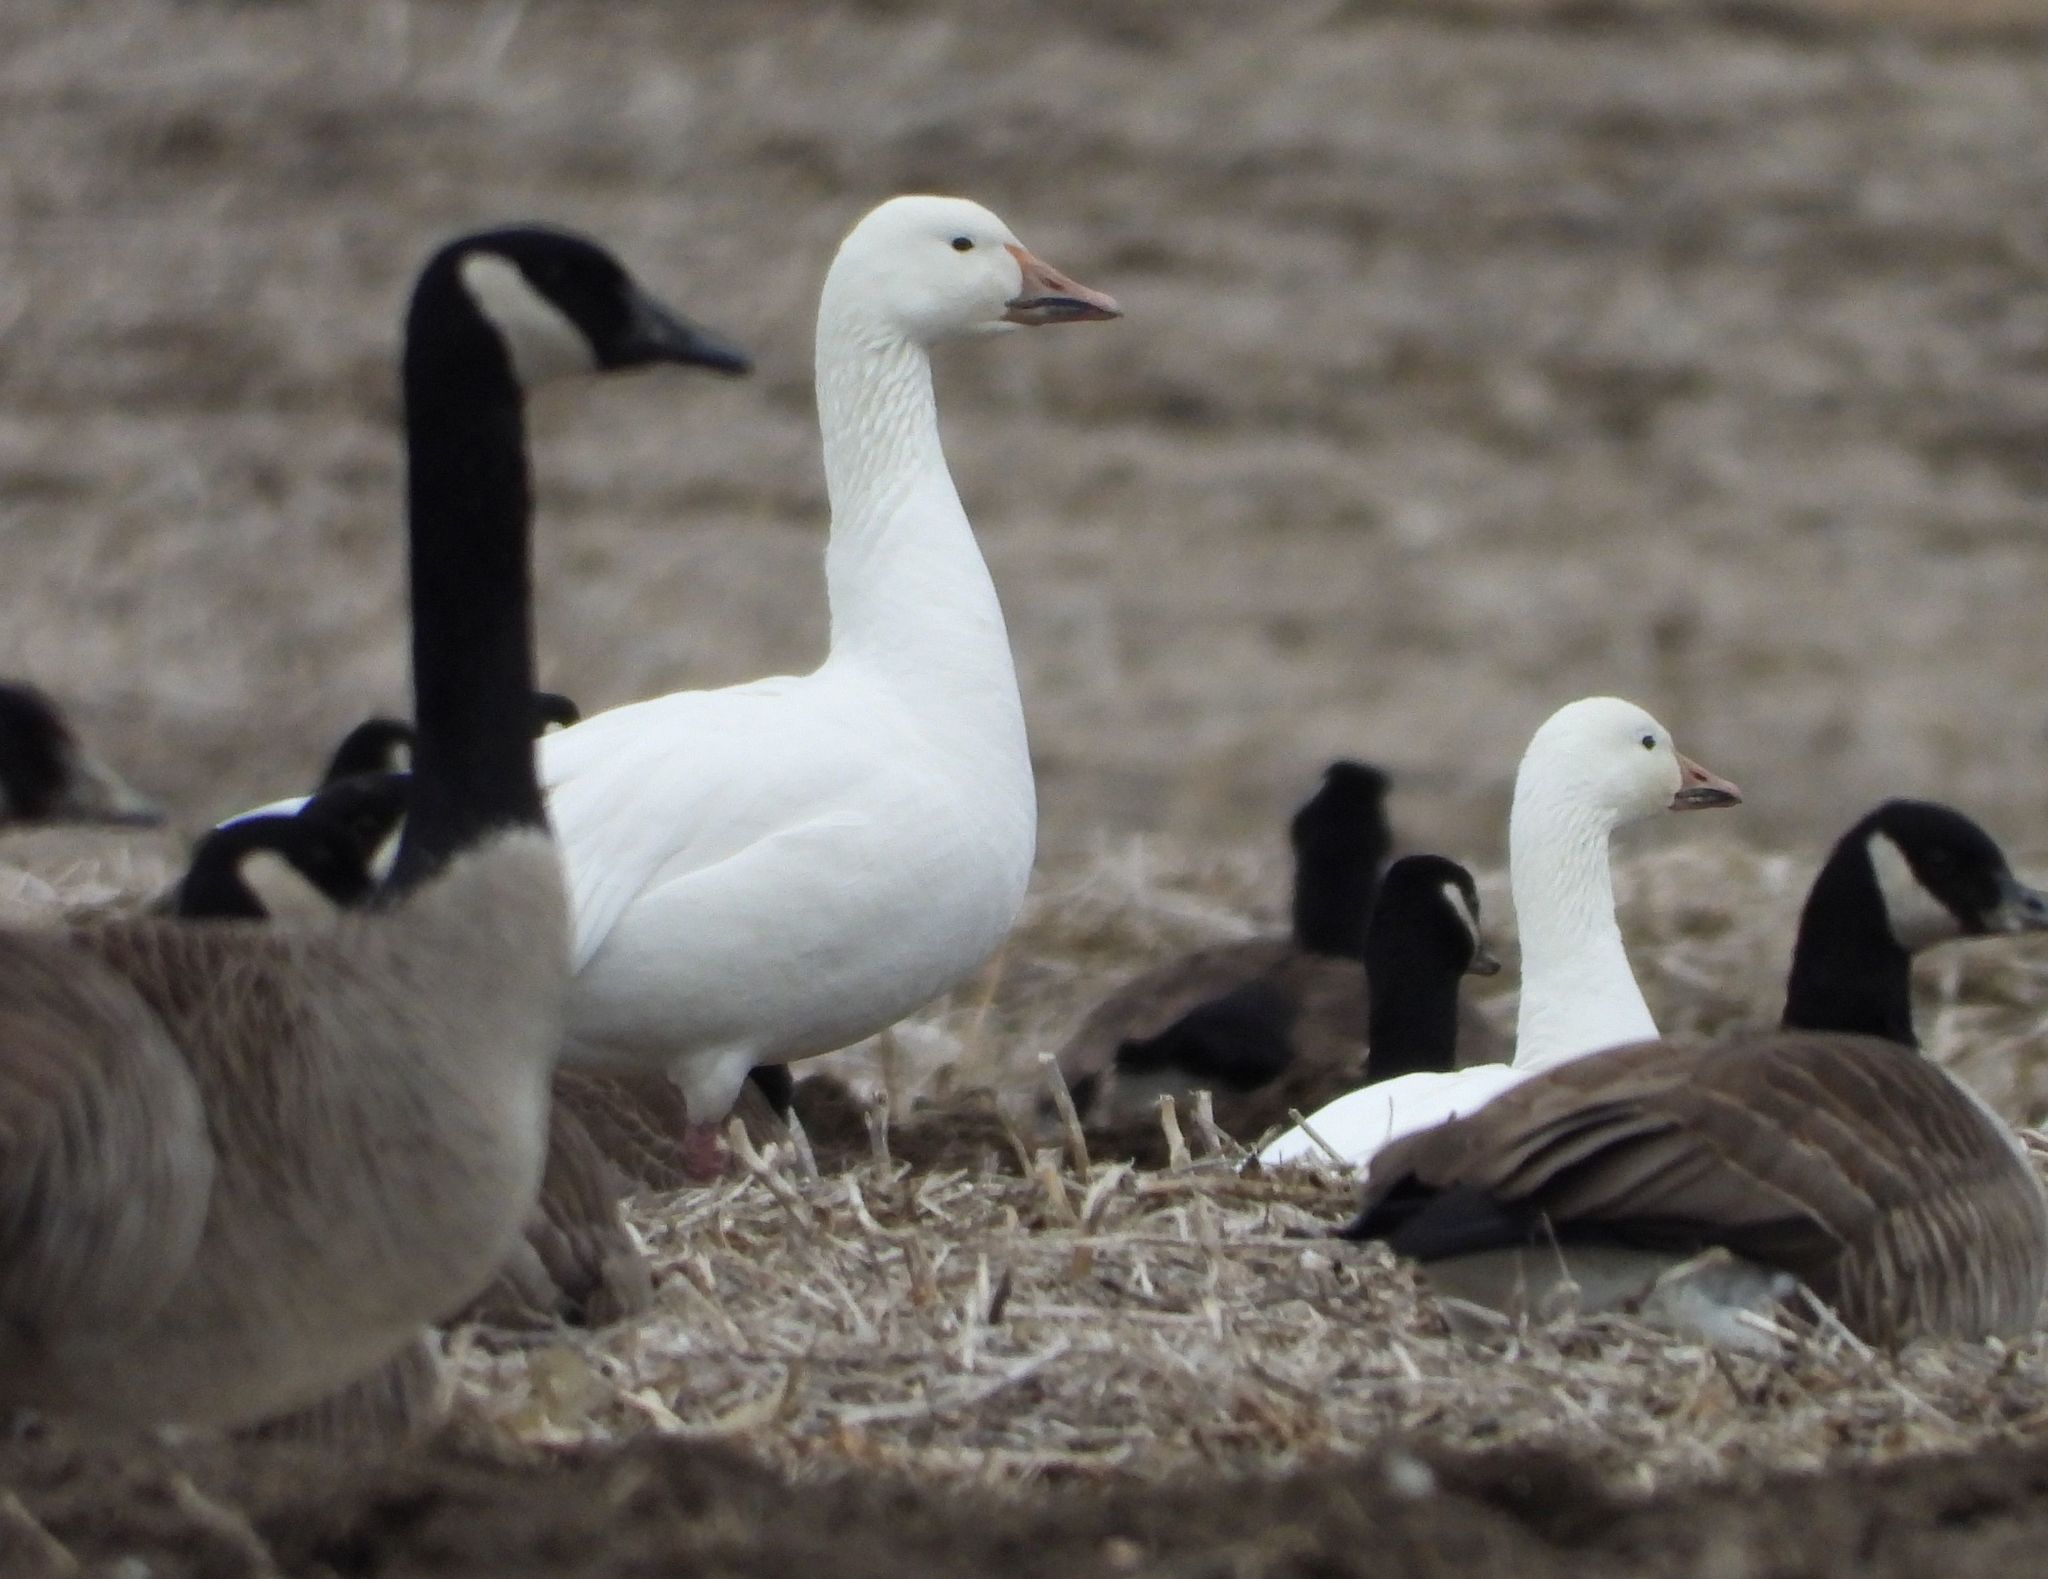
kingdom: Animalia
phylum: Chordata
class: Aves
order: Anseriformes
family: Anatidae
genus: Anser
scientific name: Anser caerulescens
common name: Snow goose
